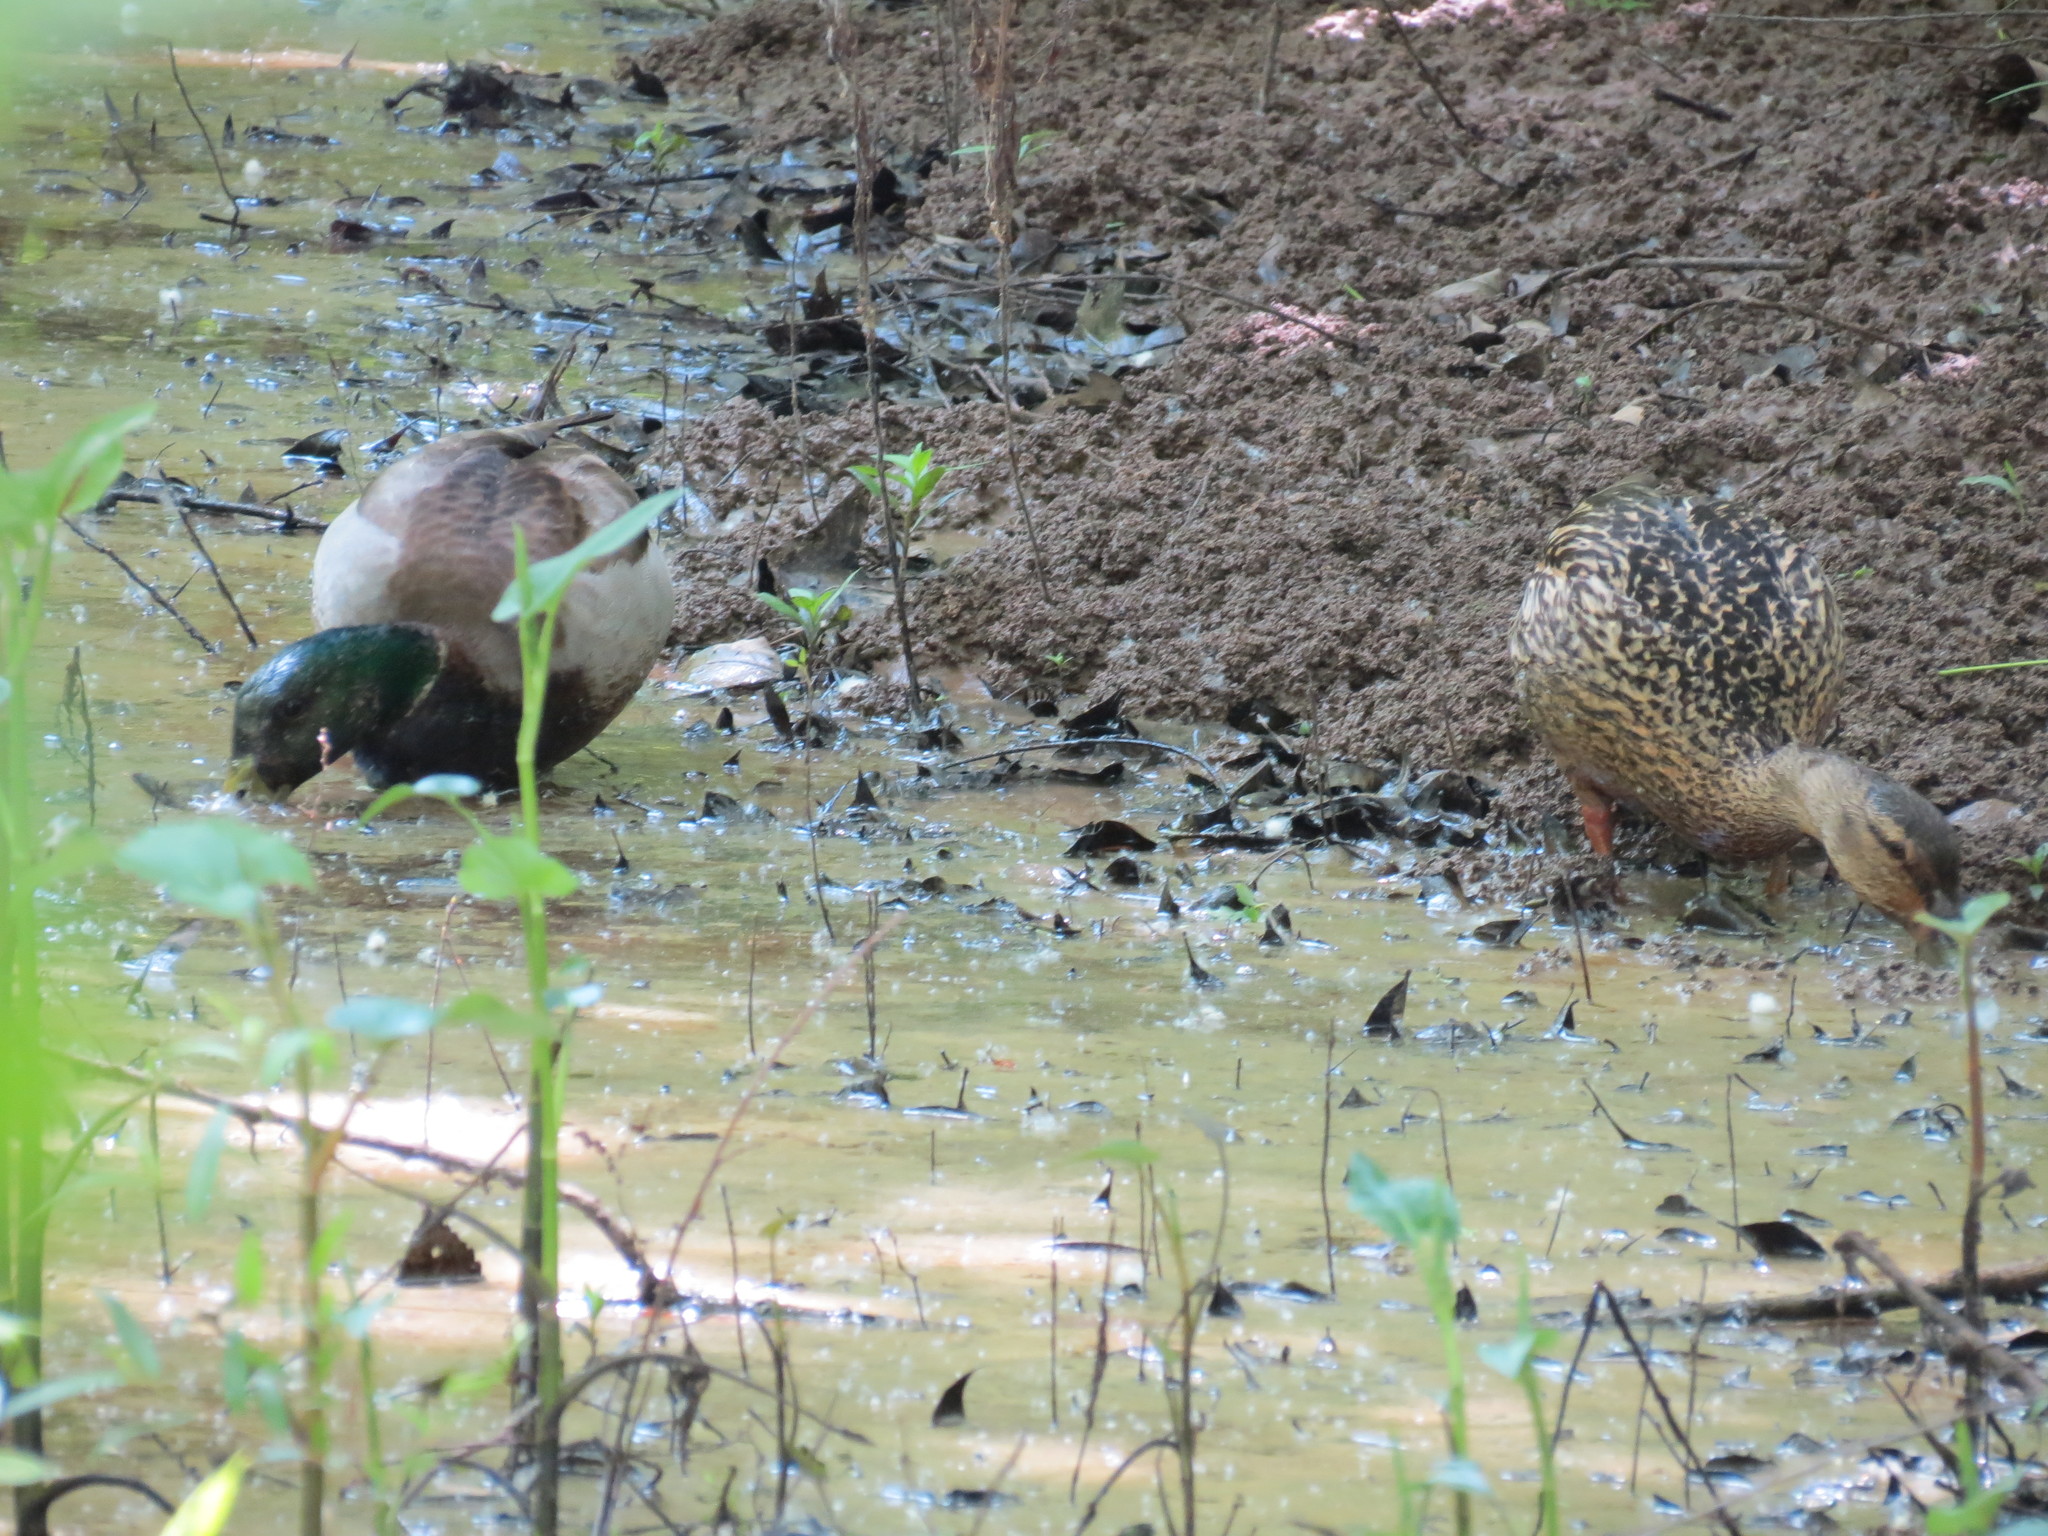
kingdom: Animalia
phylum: Chordata
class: Aves
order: Anseriformes
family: Anatidae
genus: Anas
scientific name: Anas platyrhynchos
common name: Mallard
